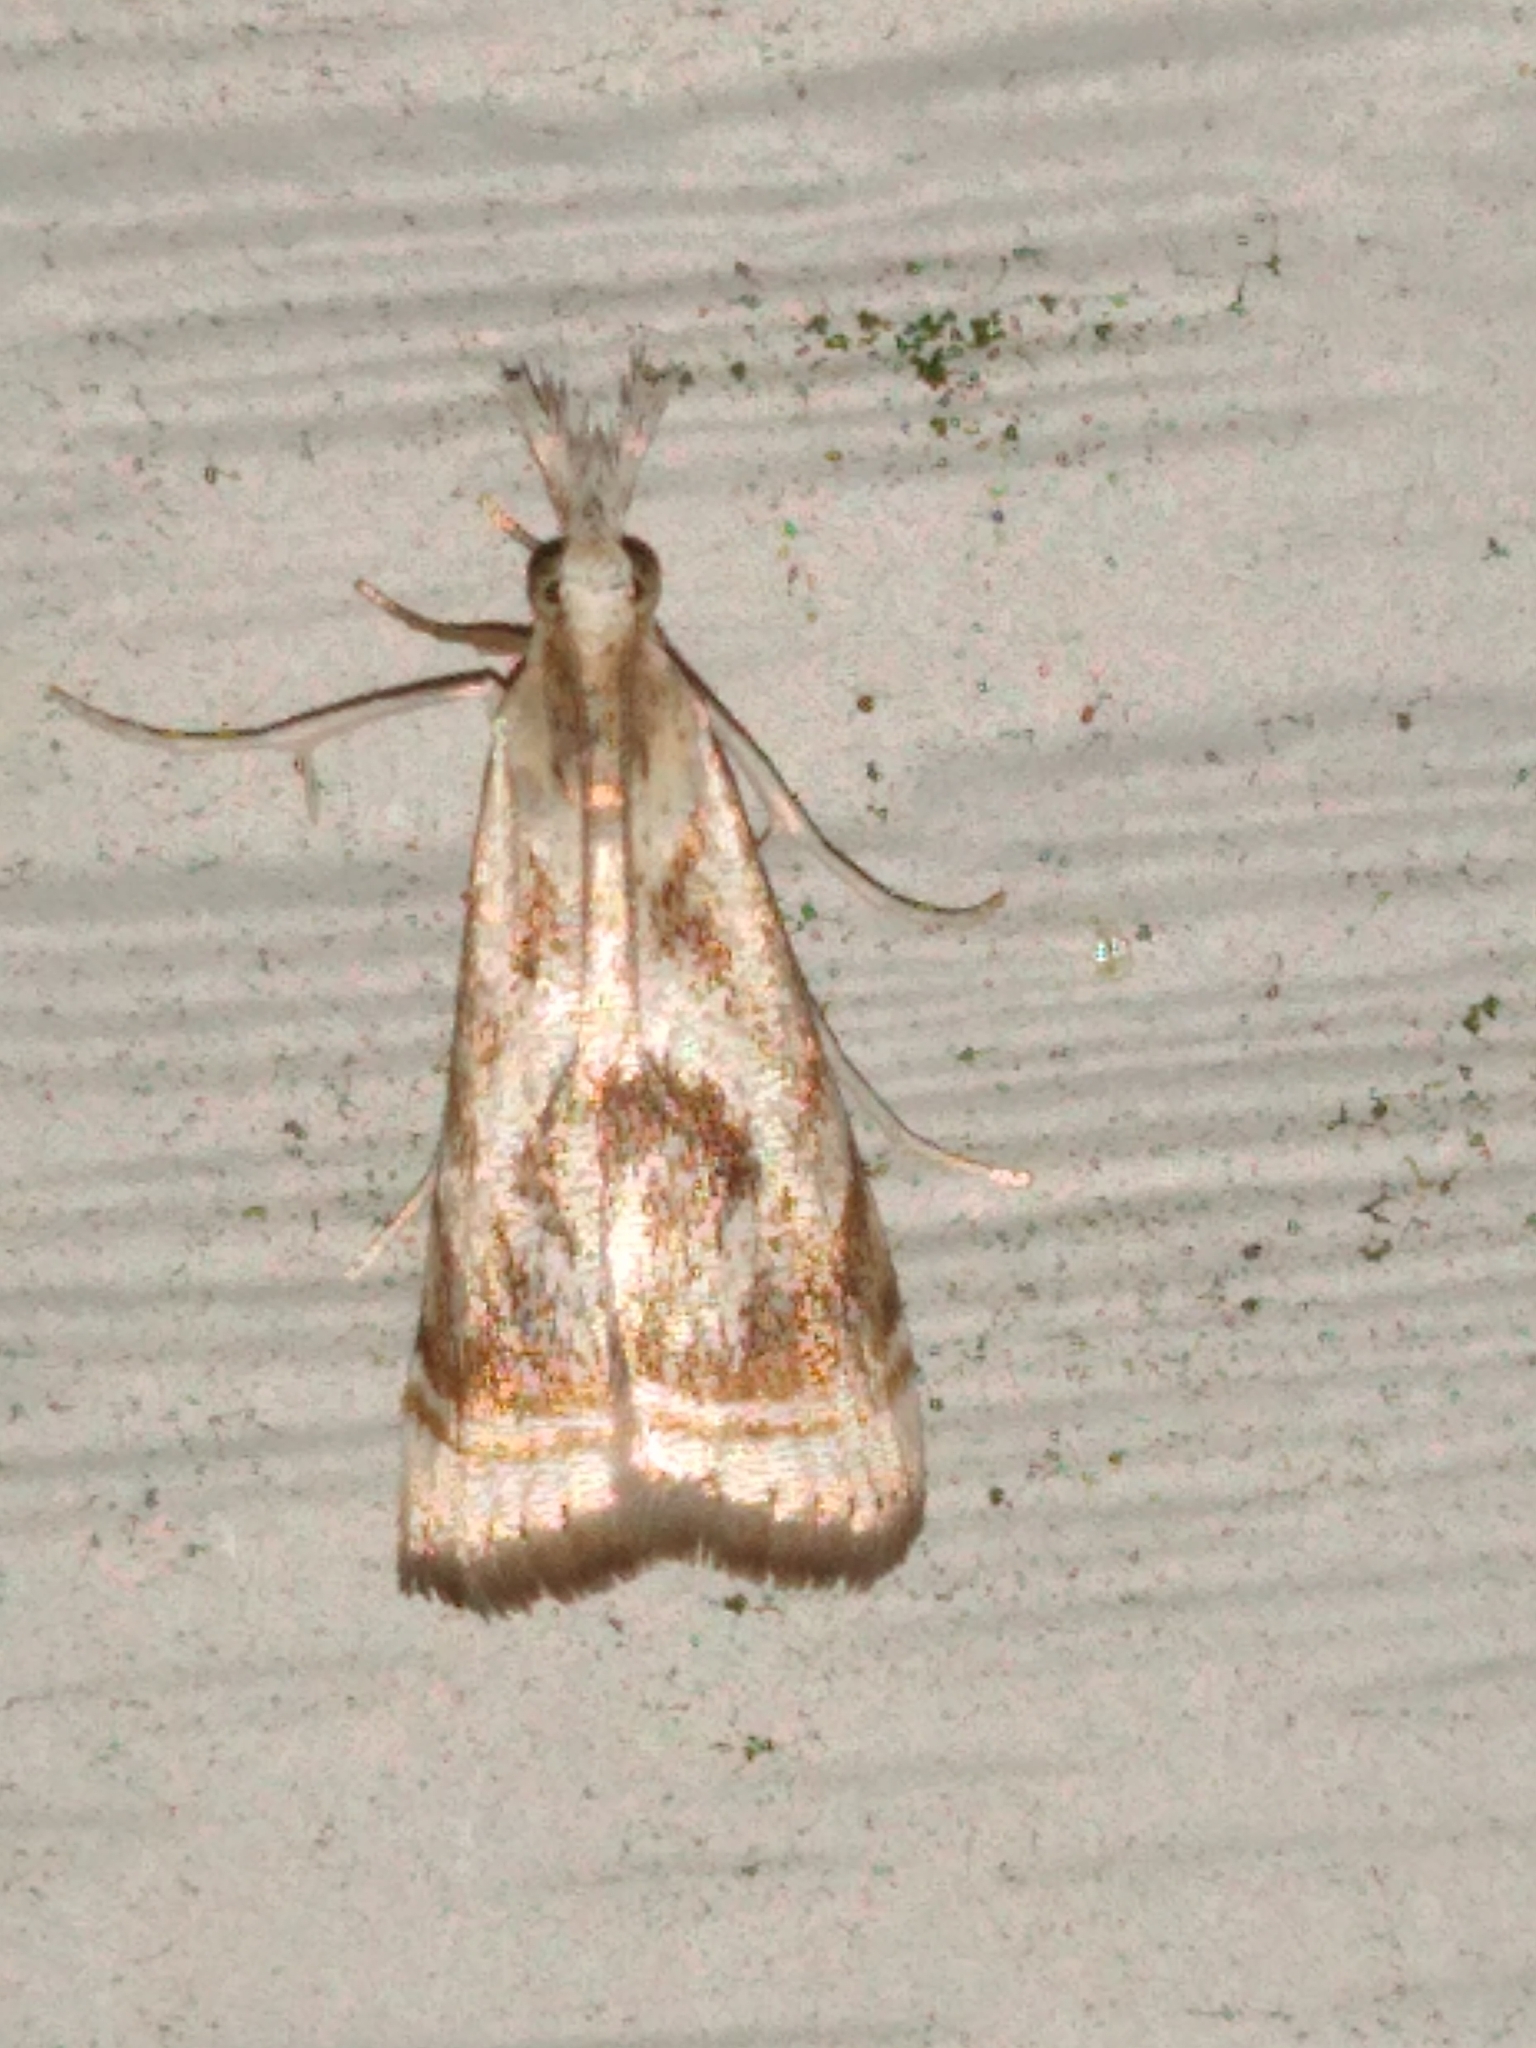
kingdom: Animalia
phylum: Arthropoda
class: Insecta
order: Lepidoptera
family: Crambidae
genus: Microcrambus
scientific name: Microcrambus elegans
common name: Elegant grass-veneer
